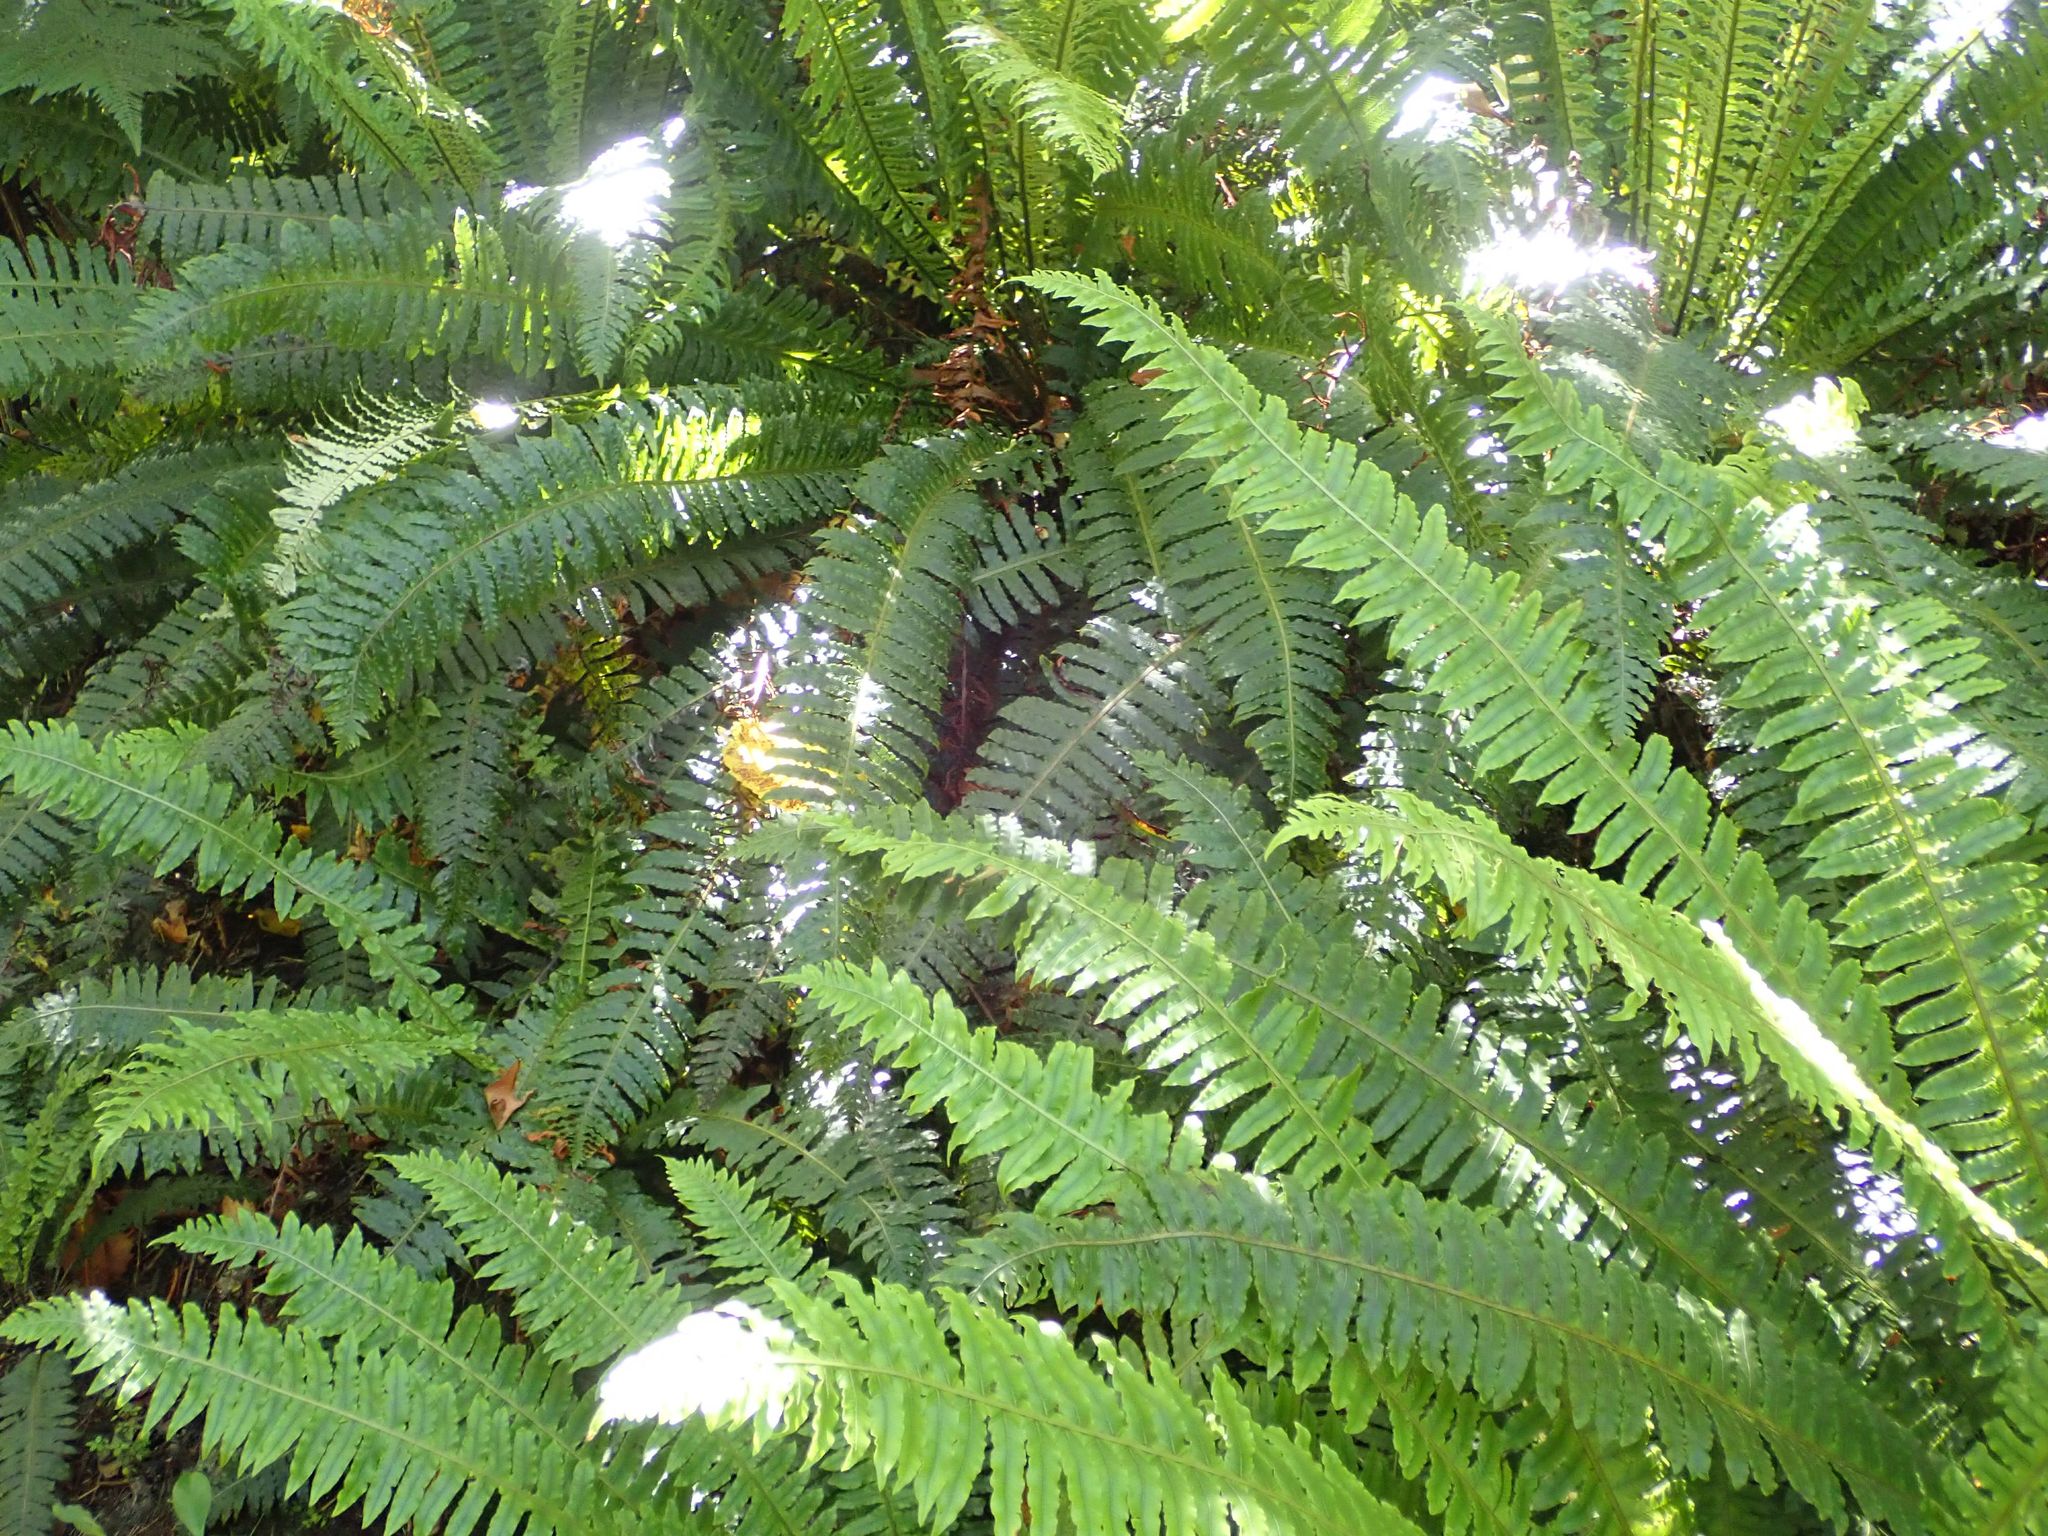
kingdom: Plantae
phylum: Tracheophyta
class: Polypodiopsida
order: Polypodiales
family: Blechnaceae
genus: Lomaria
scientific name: Lomaria discolor
